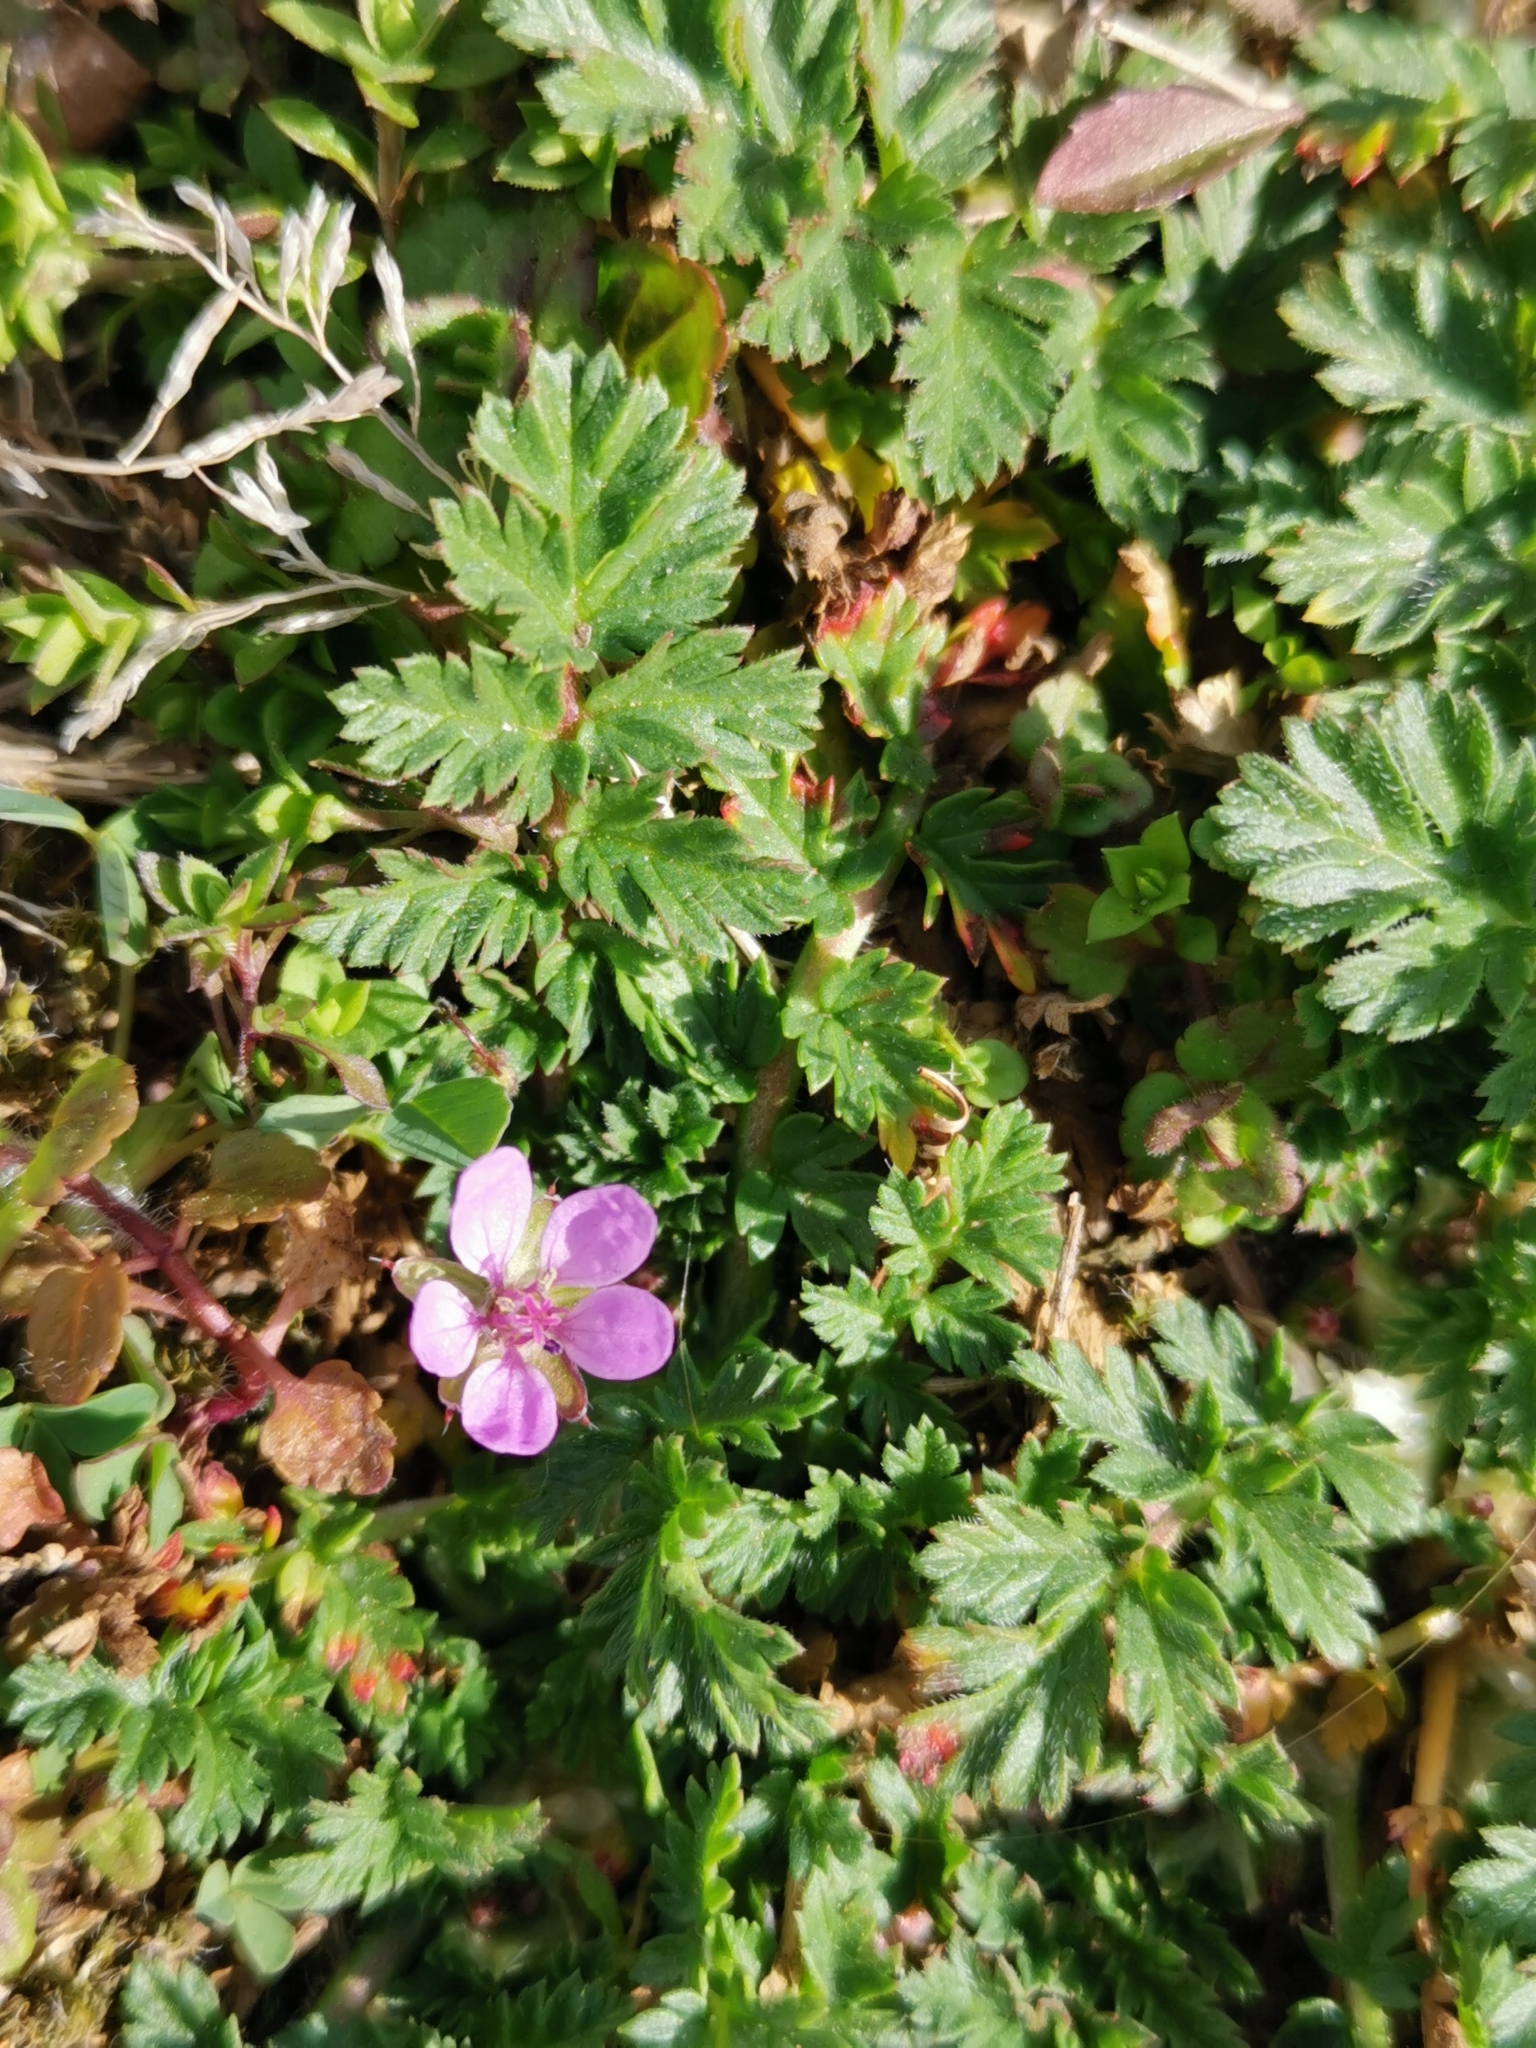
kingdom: Plantae
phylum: Tracheophyta
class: Magnoliopsida
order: Geraniales
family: Geraniaceae
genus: Erodium
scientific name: Erodium cicutarium
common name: Common stork's-bill
